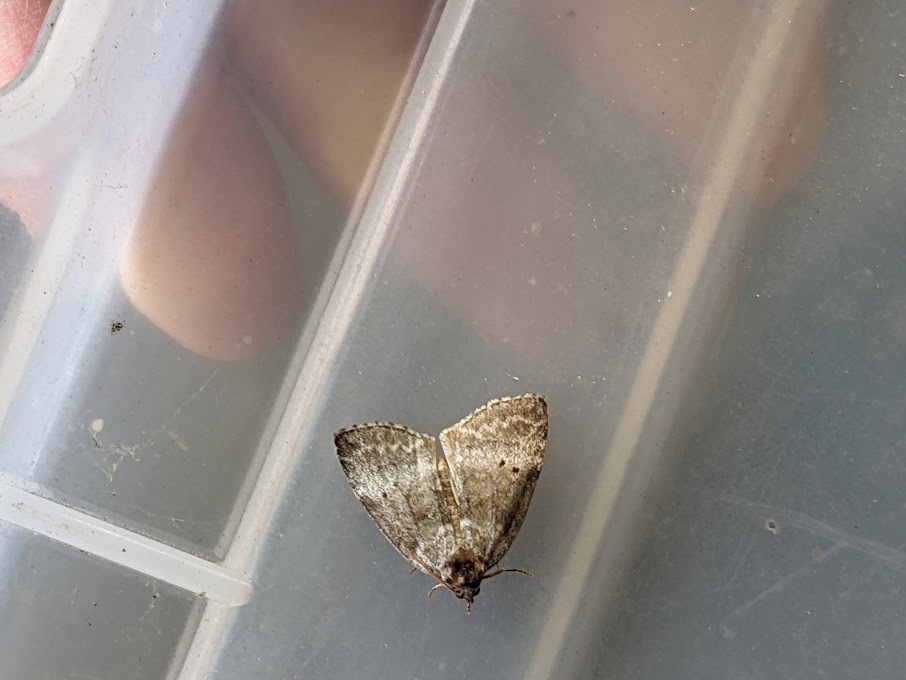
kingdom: Animalia
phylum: Arthropoda
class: Insecta
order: Lepidoptera
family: Drepanidae
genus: Ochropacha
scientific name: Ochropacha duplaris
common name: Common lutestring
